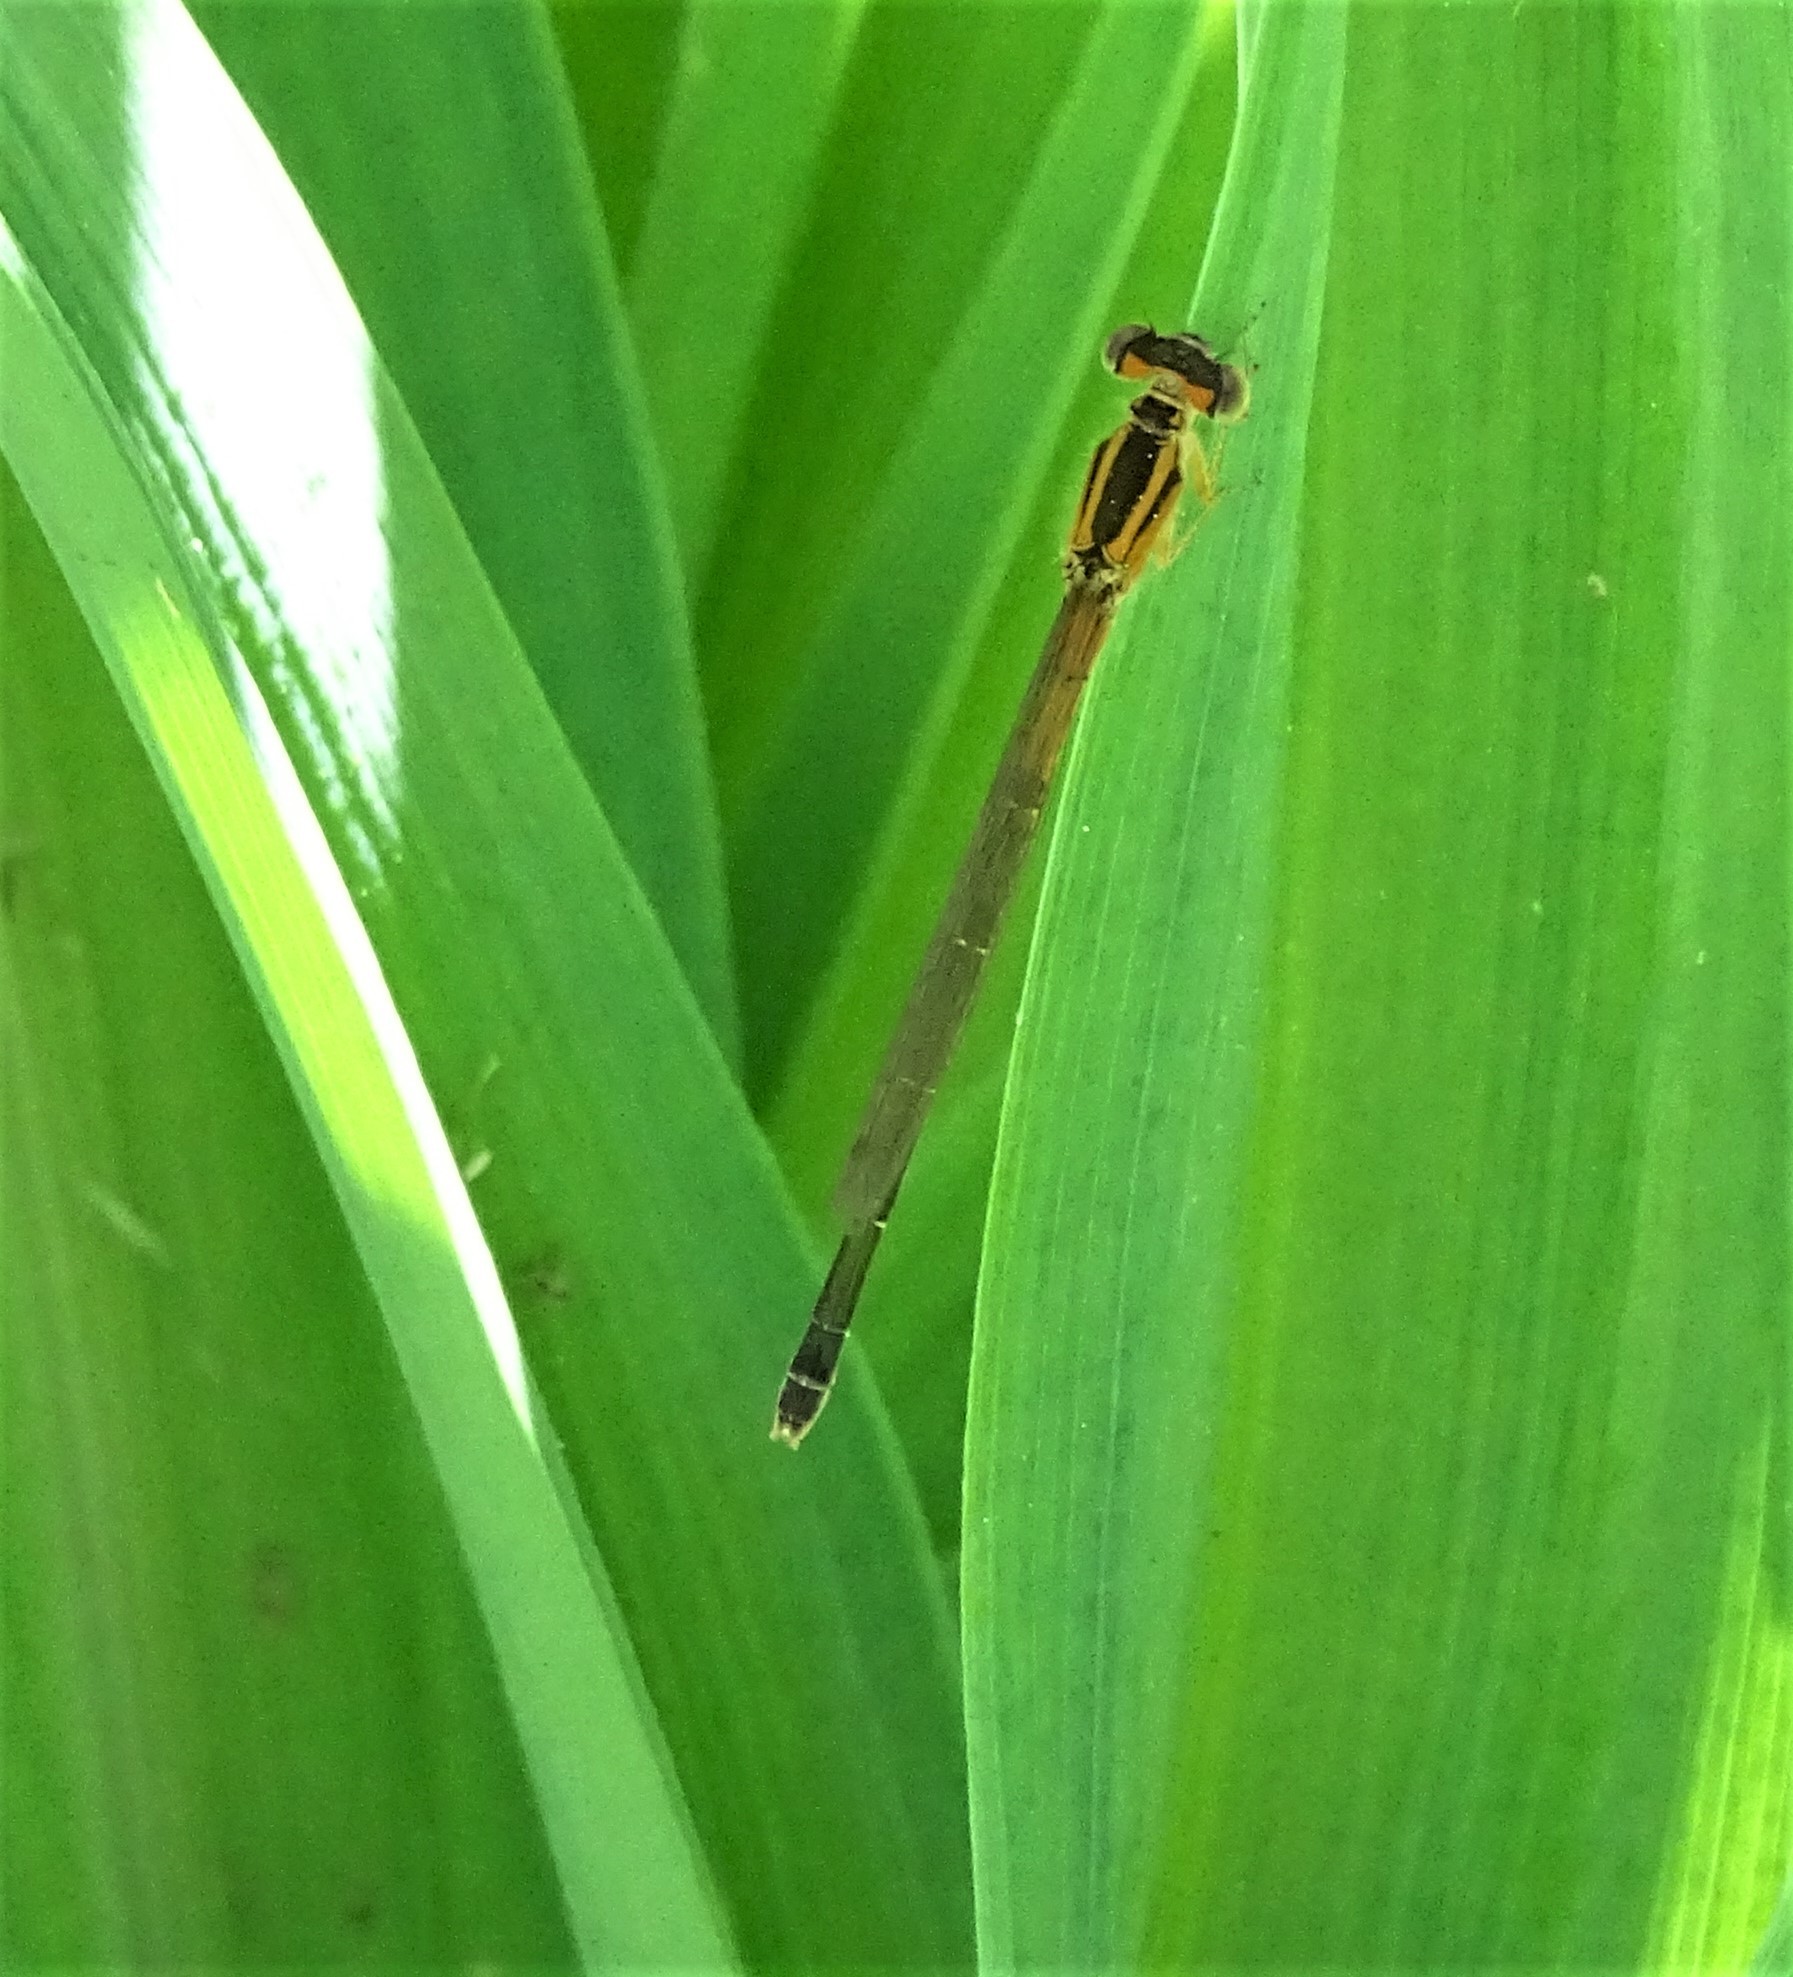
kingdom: Animalia
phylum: Arthropoda
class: Insecta
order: Odonata
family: Coenagrionidae
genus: Ischnura
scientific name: Ischnura verticalis
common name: Eastern forktail
